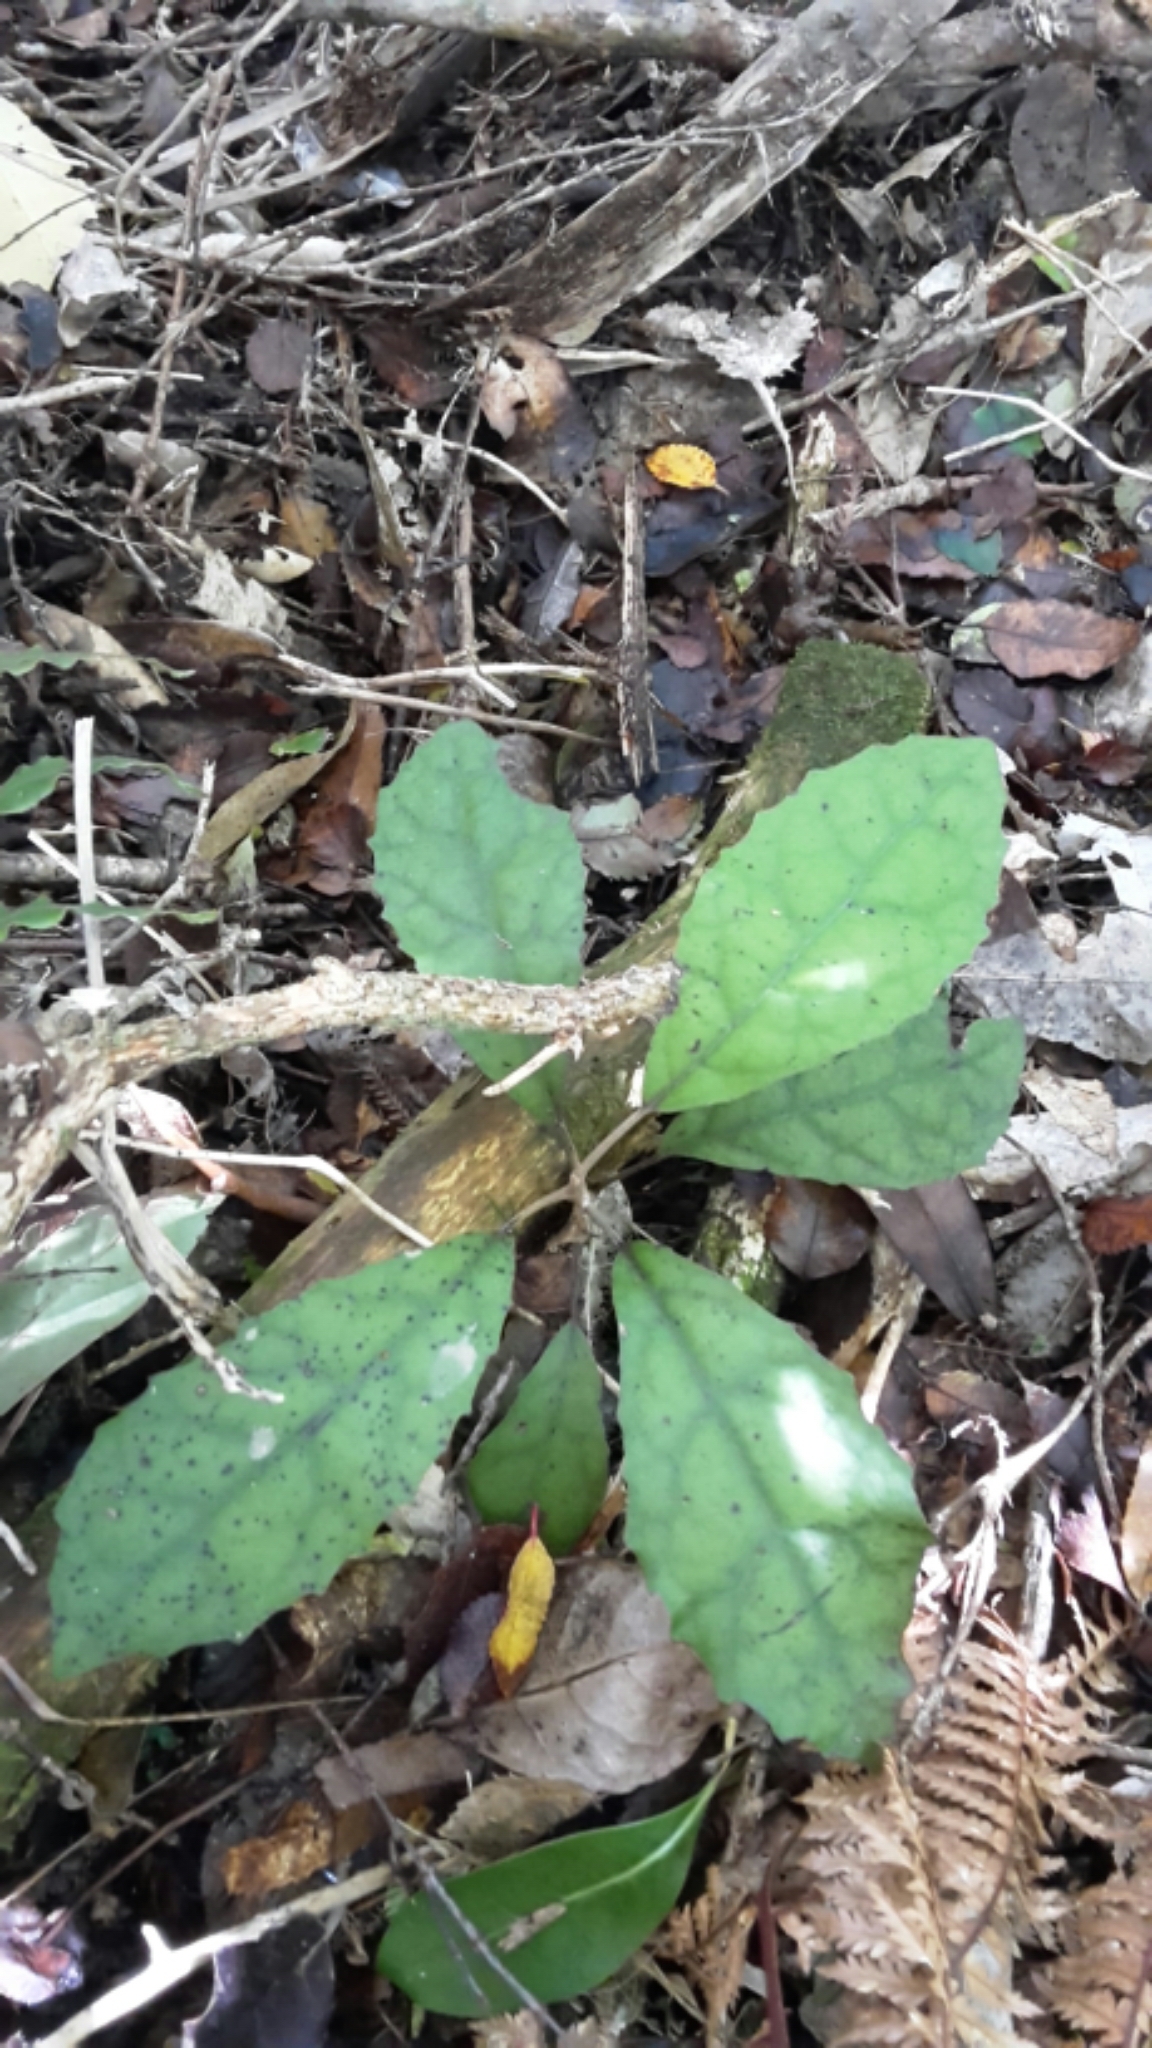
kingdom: Plantae
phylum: Tracheophyta
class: Magnoliopsida
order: Asterales
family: Asteraceae
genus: Olearia
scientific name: Olearia rani
